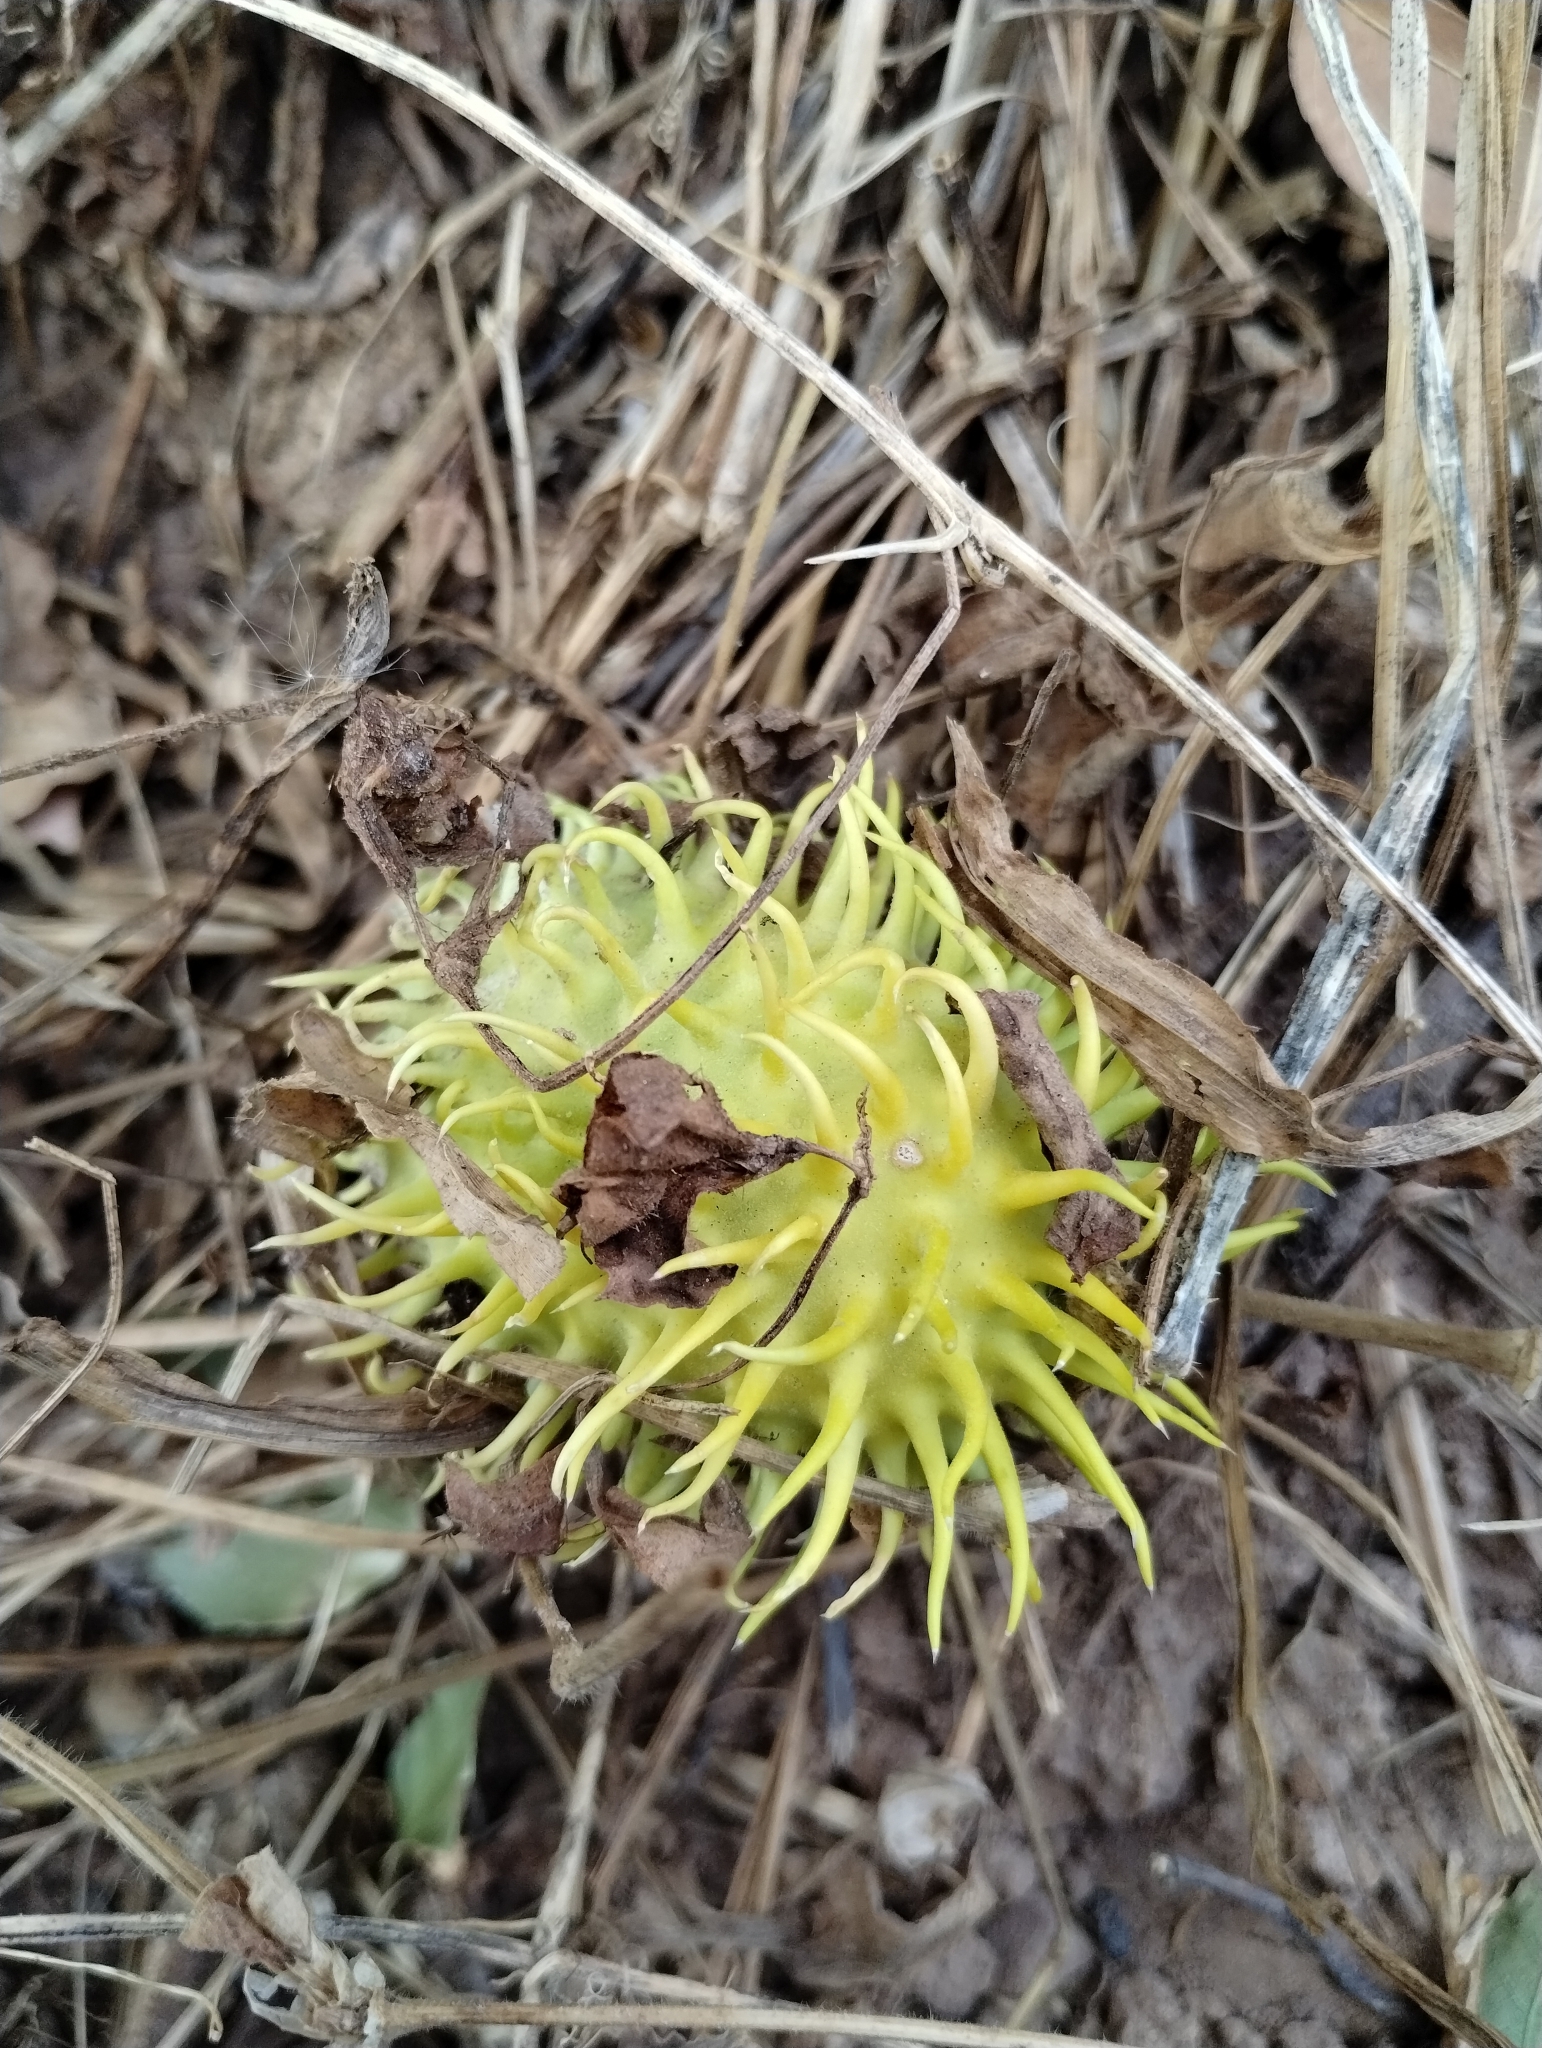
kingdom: Plantae
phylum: Tracheophyta
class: Magnoliopsida
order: Cucurbitales
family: Cucurbitaceae
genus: Cucumis
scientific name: Cucumis anguria
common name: West indian gherkin
